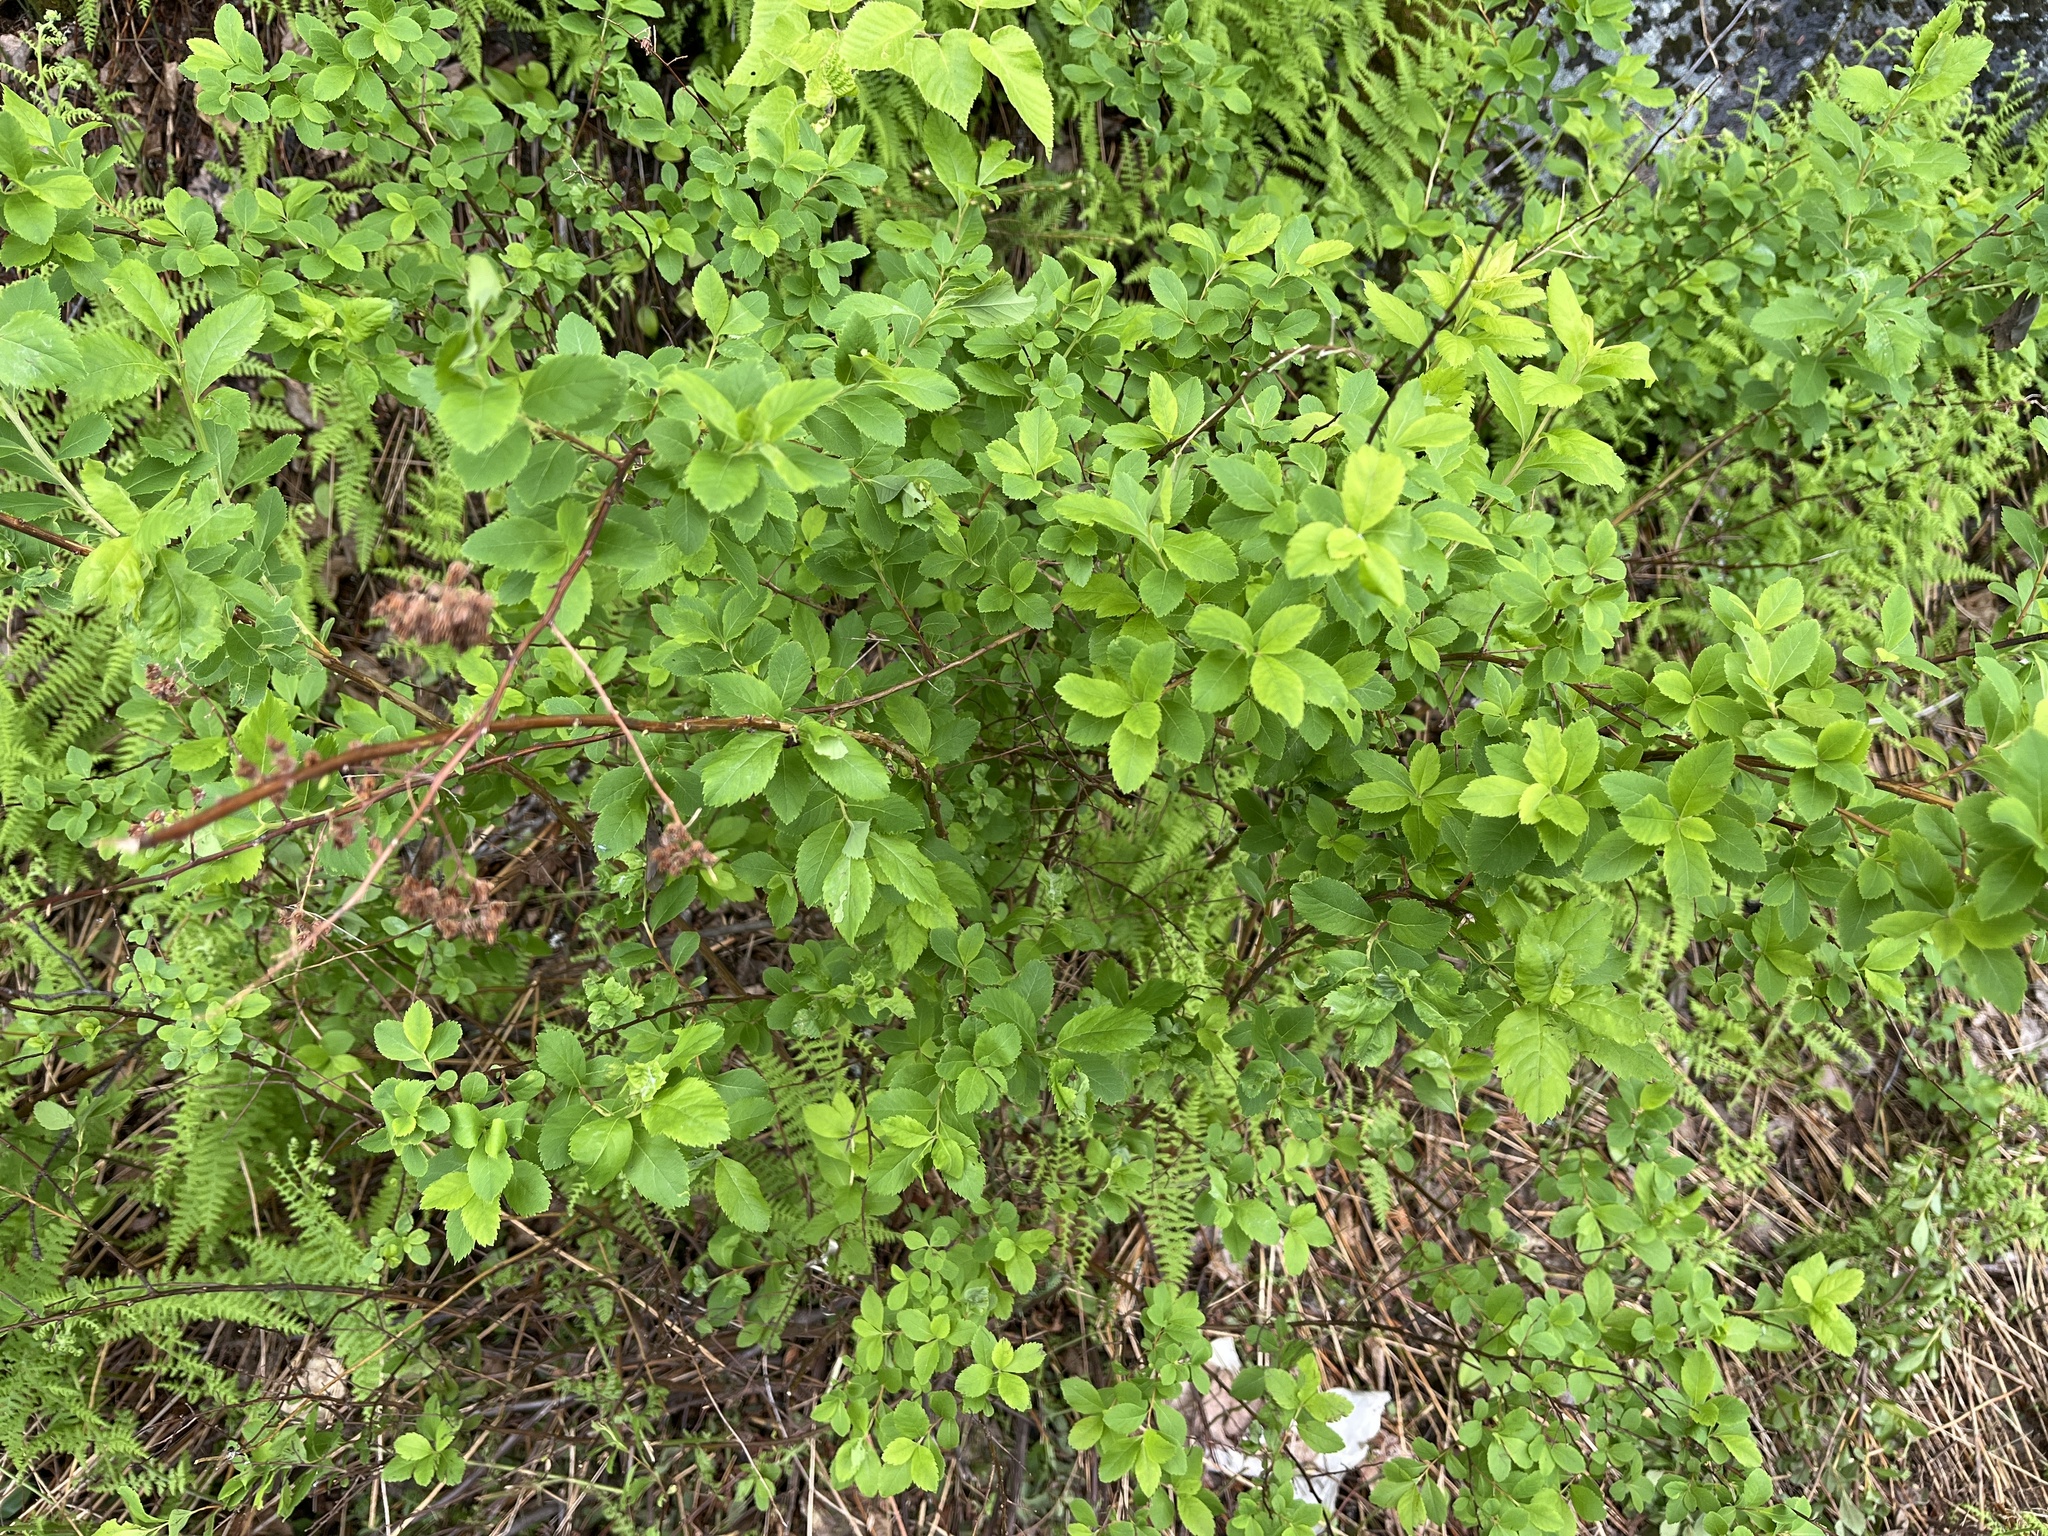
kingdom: Plantae
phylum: Tracheophyta
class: Magnoliopsida
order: Rosales
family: Rosaceae
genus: Spiraea
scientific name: Spiraea alba
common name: Pale bridewort
